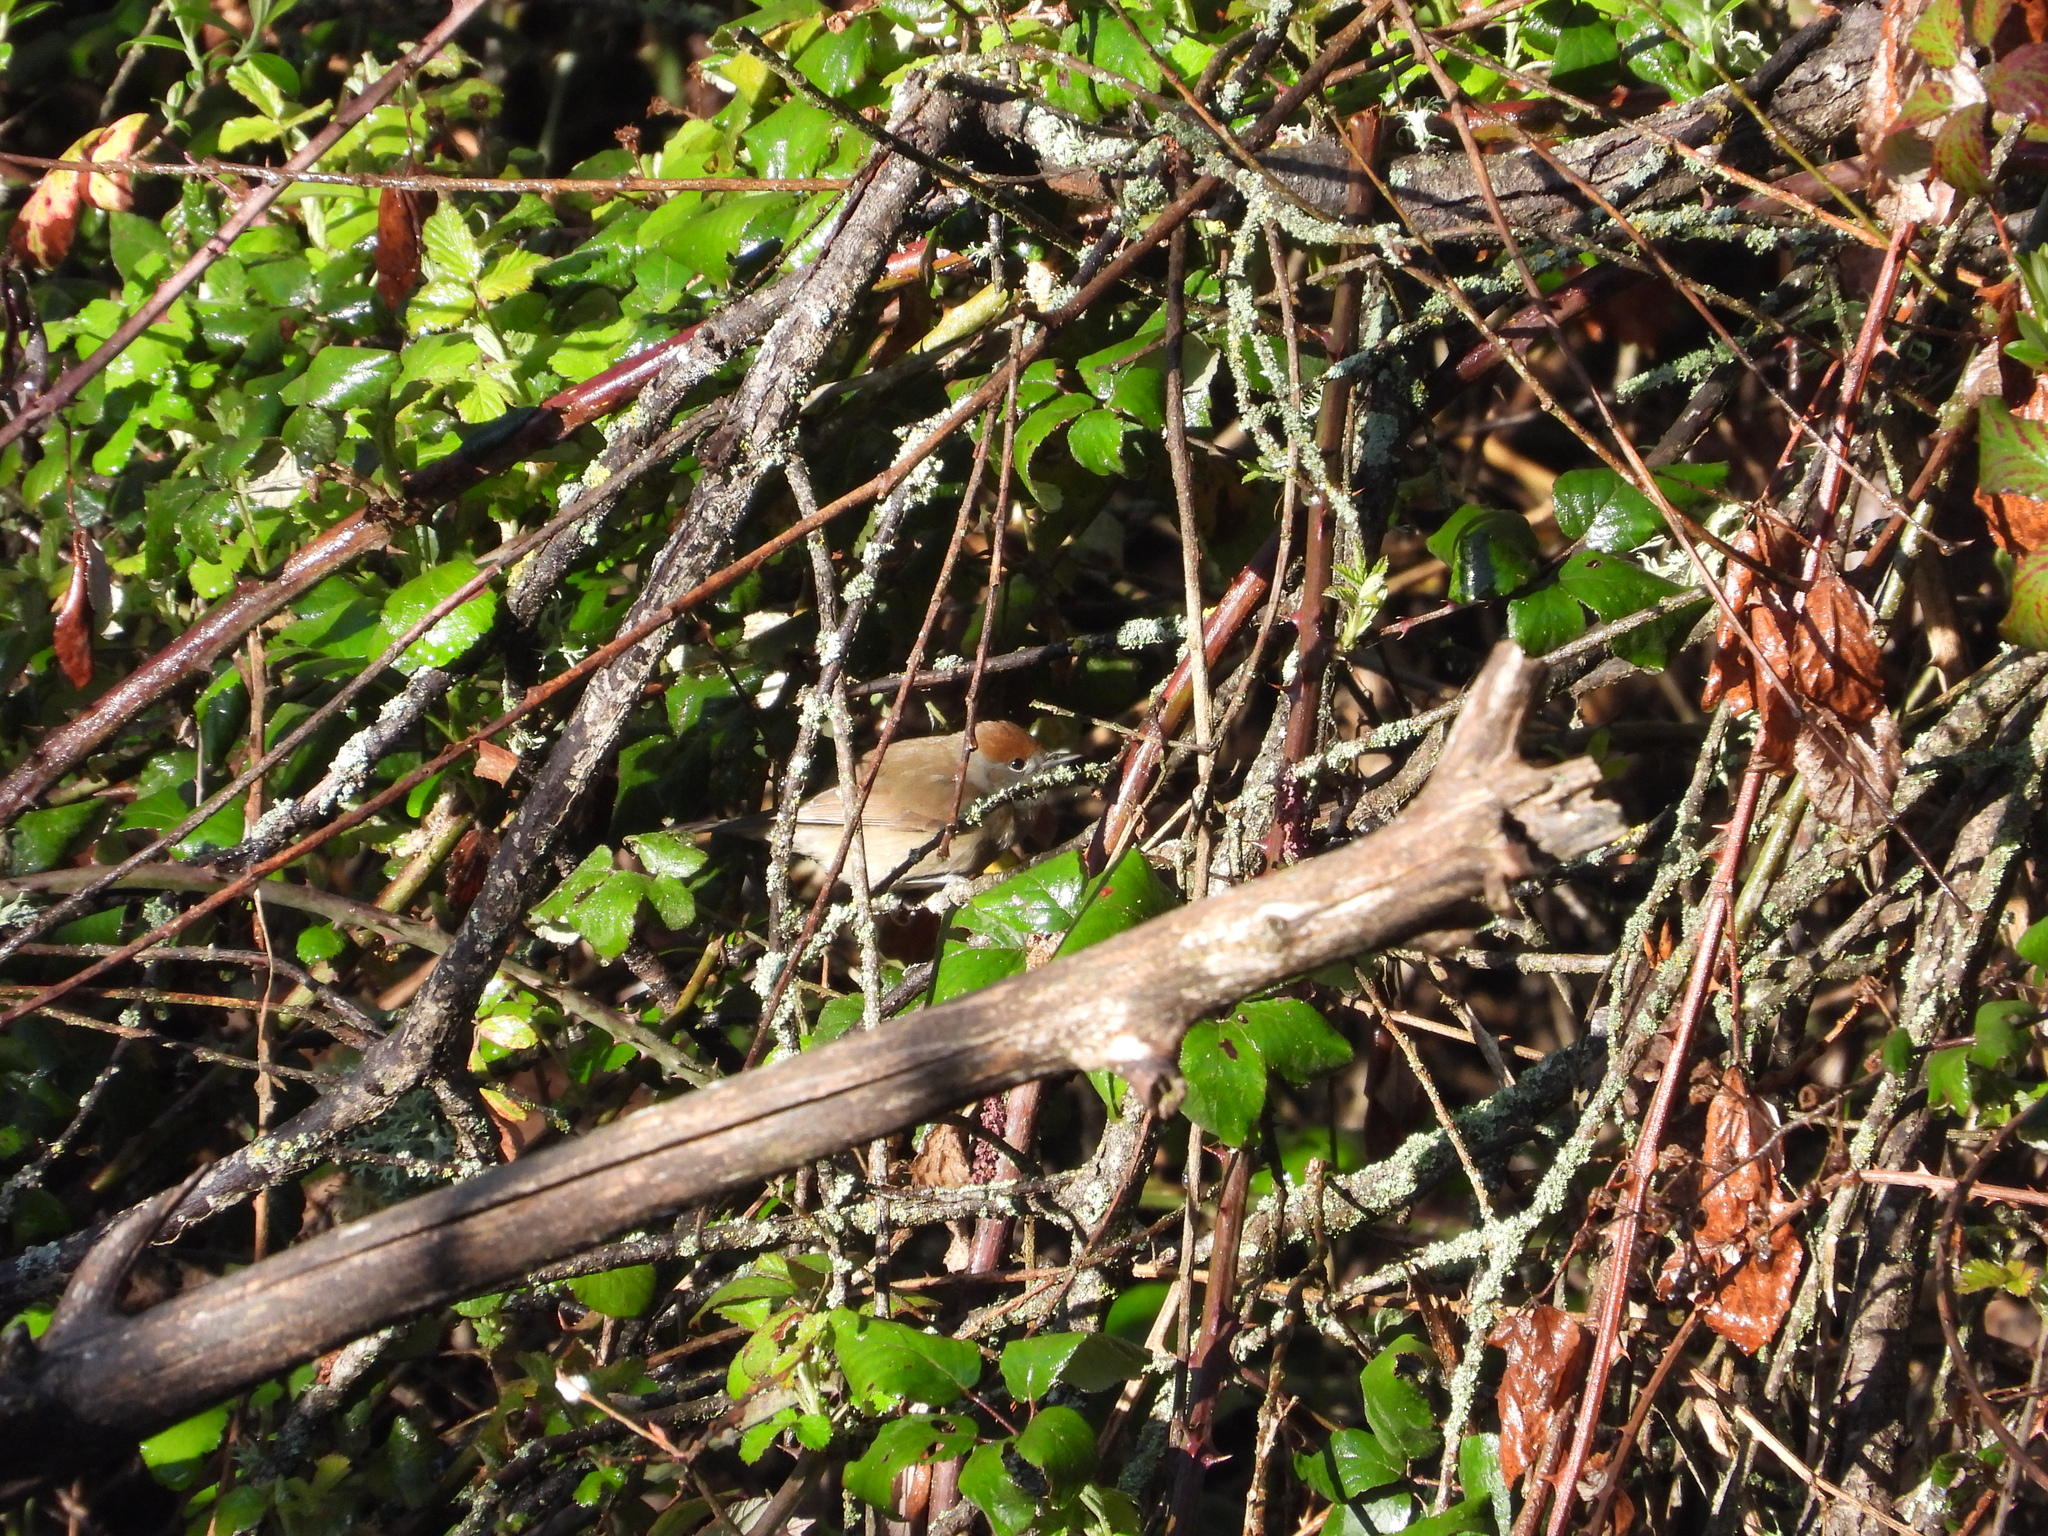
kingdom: Animalia
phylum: Chordata
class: Aves
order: Passeriformes
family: Sylviidae
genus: Sylvia
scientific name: Sylvia atricapilla
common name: Eurasian blackcap
